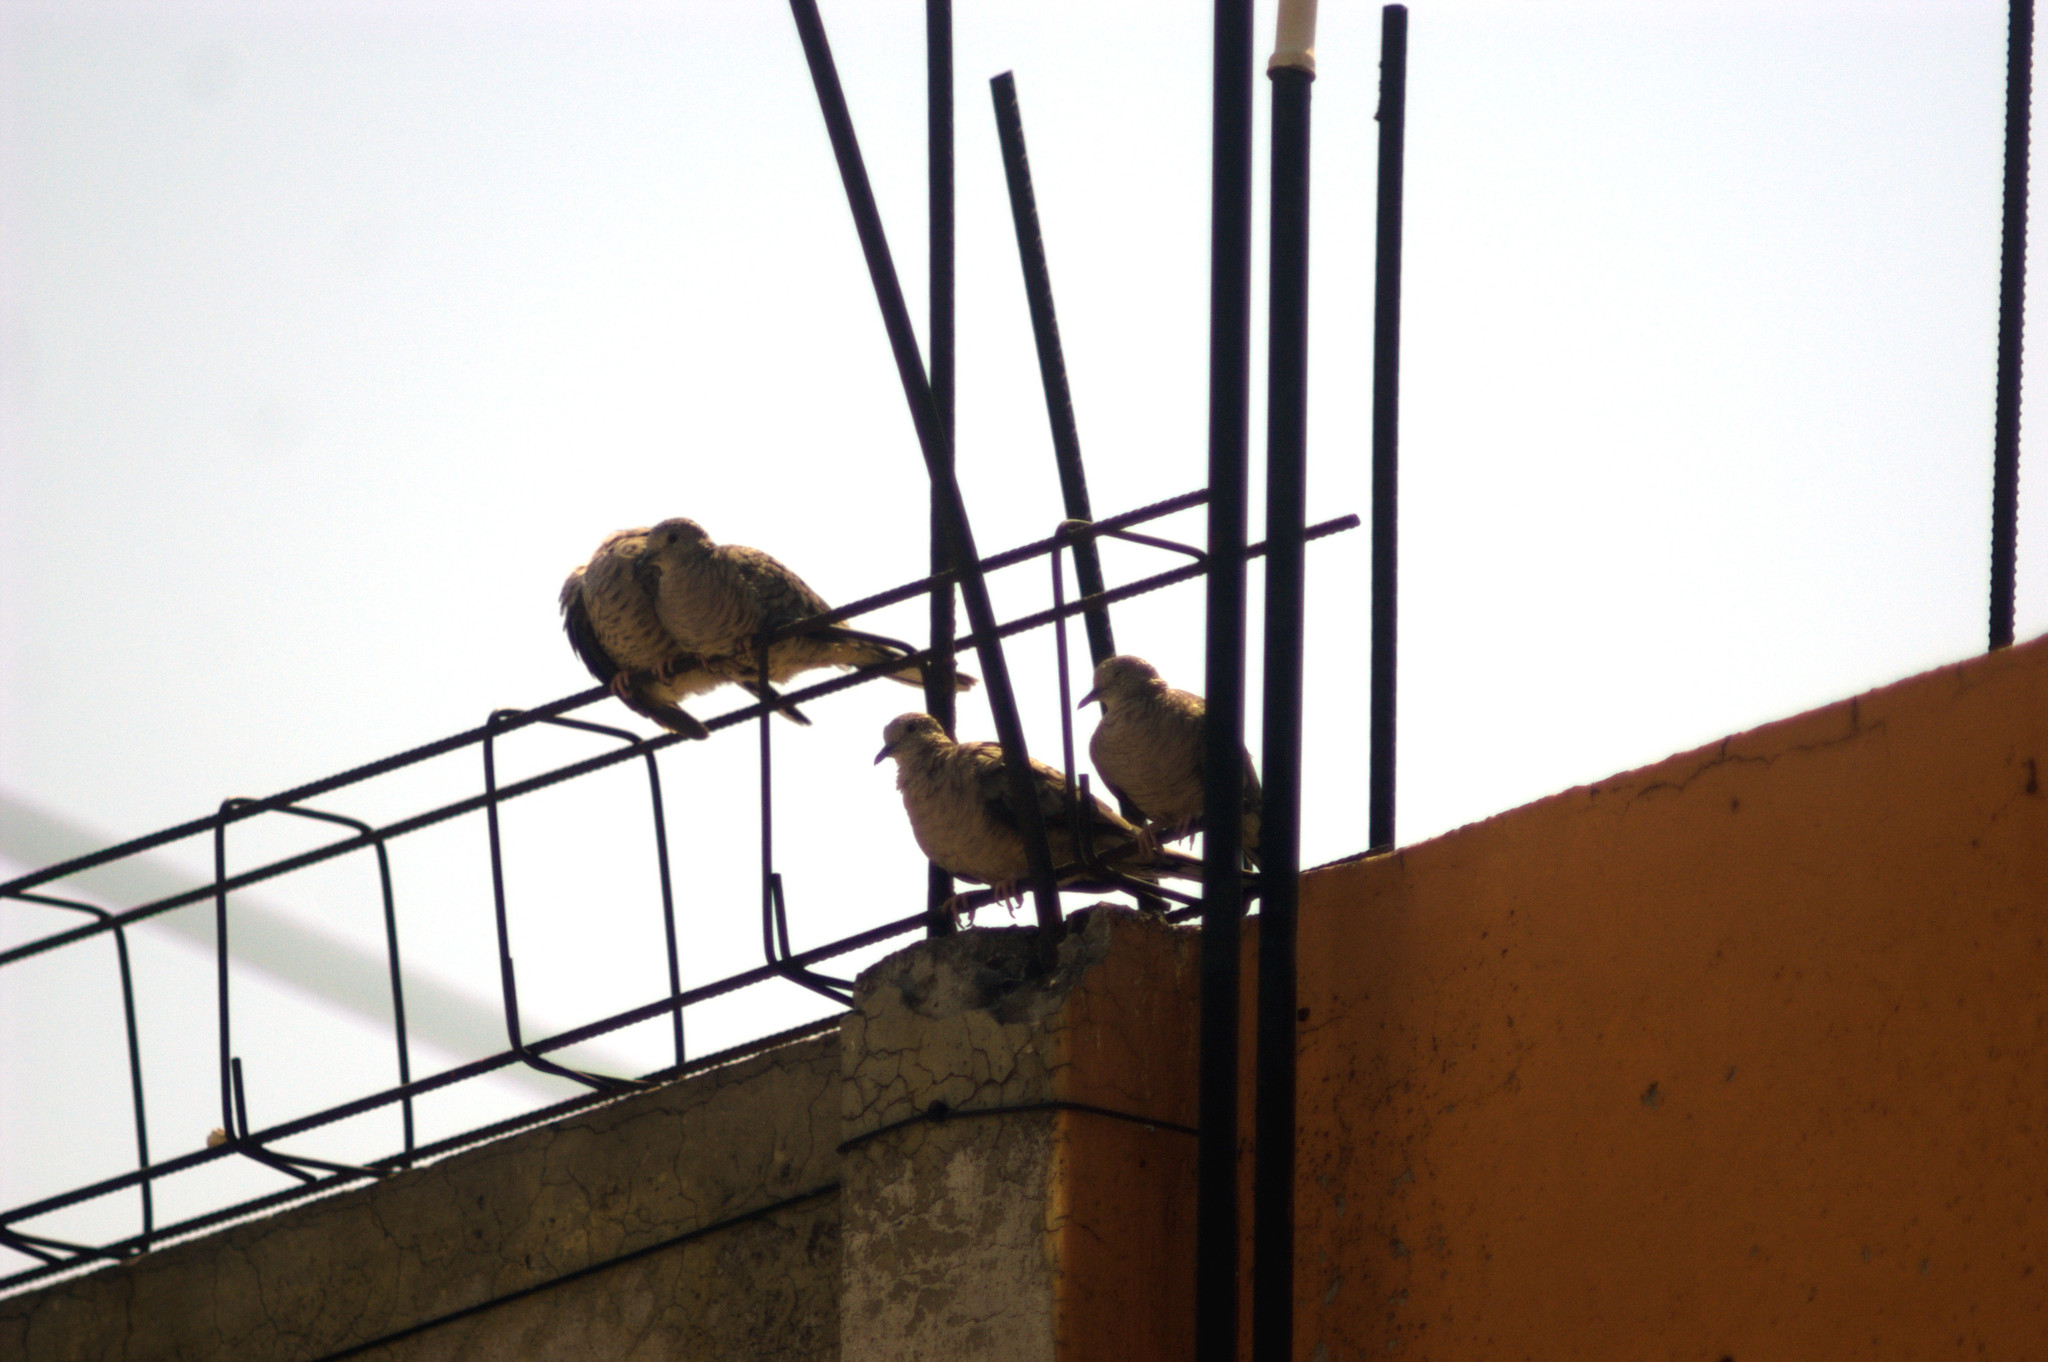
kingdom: Animalia
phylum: Chordata
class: Aves
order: Columbiformes
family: Columbidae
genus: Columbina
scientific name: Columbina inca
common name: Inca dove
